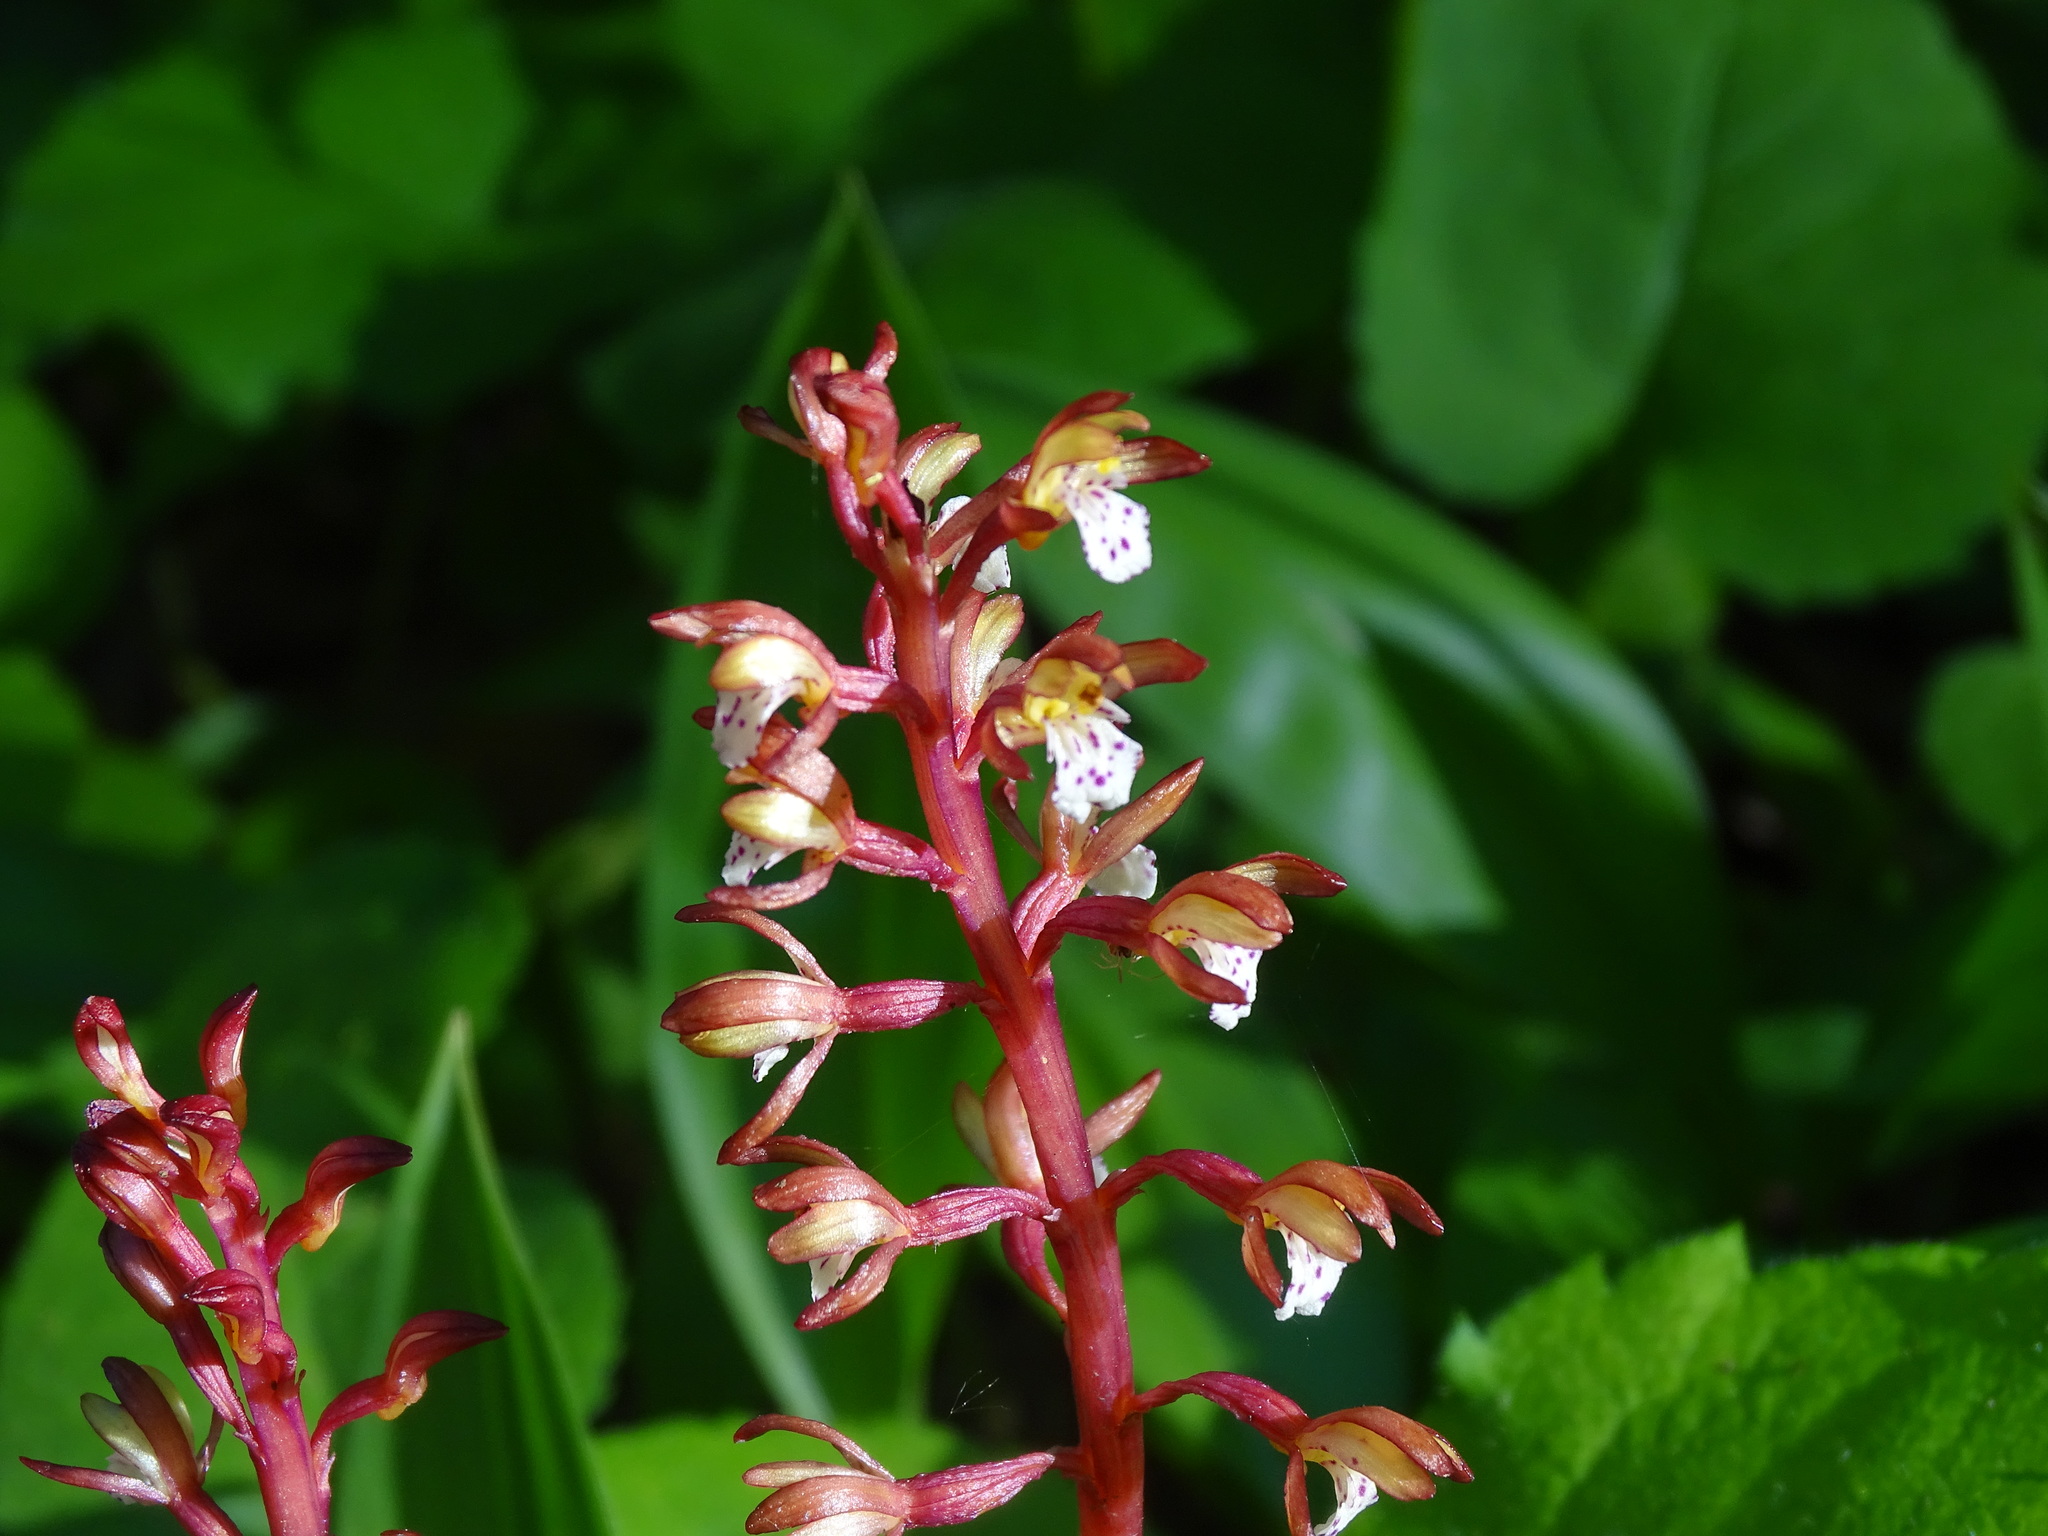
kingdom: Plantae
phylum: Tracheophyta
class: Liliopsida
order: Asparagales
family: Orchidaceae
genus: Corallorhiza
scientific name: Corallorhiza maculata
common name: Spotted coralroot
